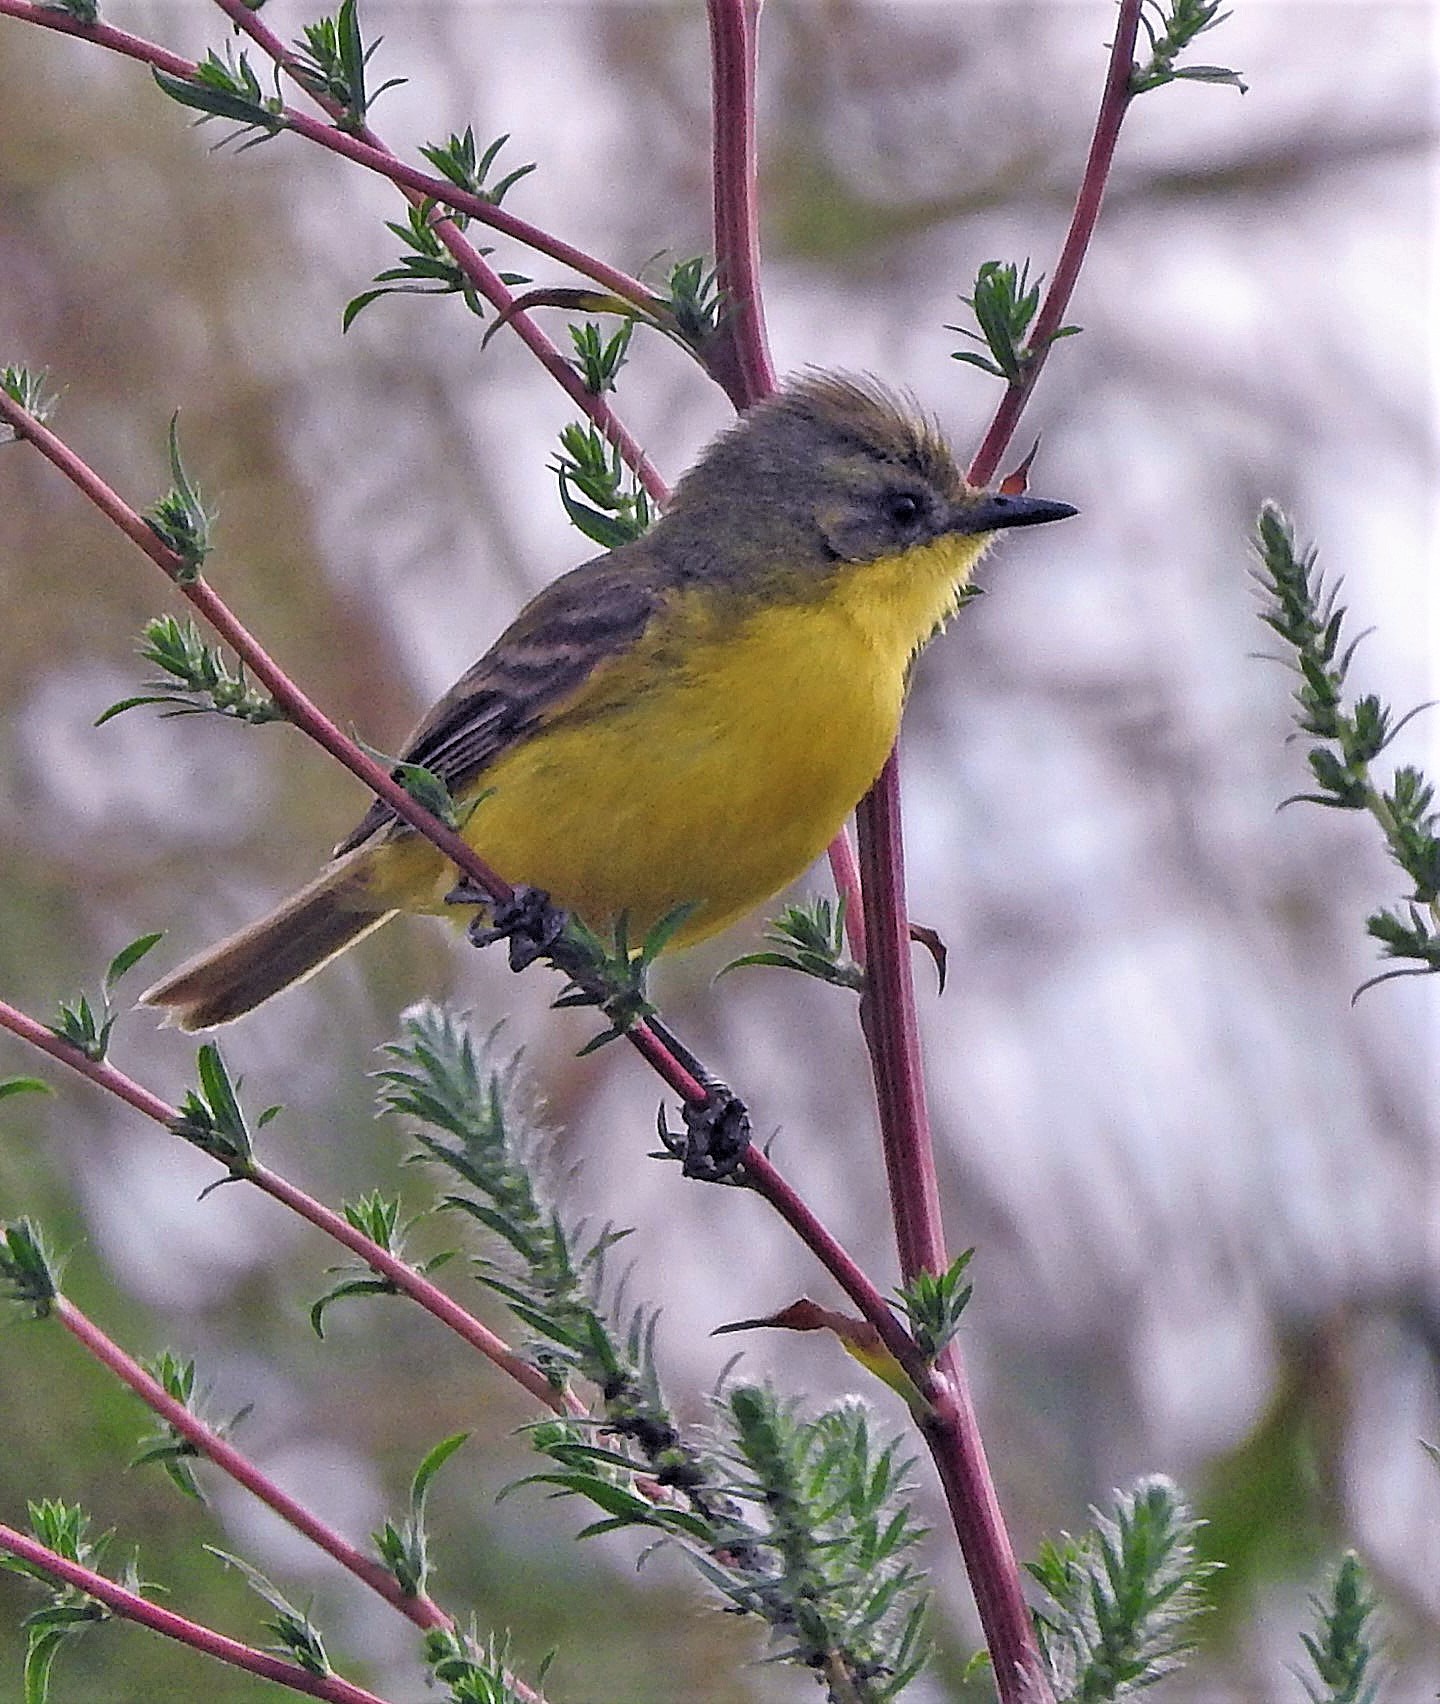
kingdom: Animalia
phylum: Chordata
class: Aves
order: Passeriformes
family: Tyrannidae
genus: Pseudocolopteryx
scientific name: Pseudocolopteryx acutipennis
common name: Subtropical doradito
